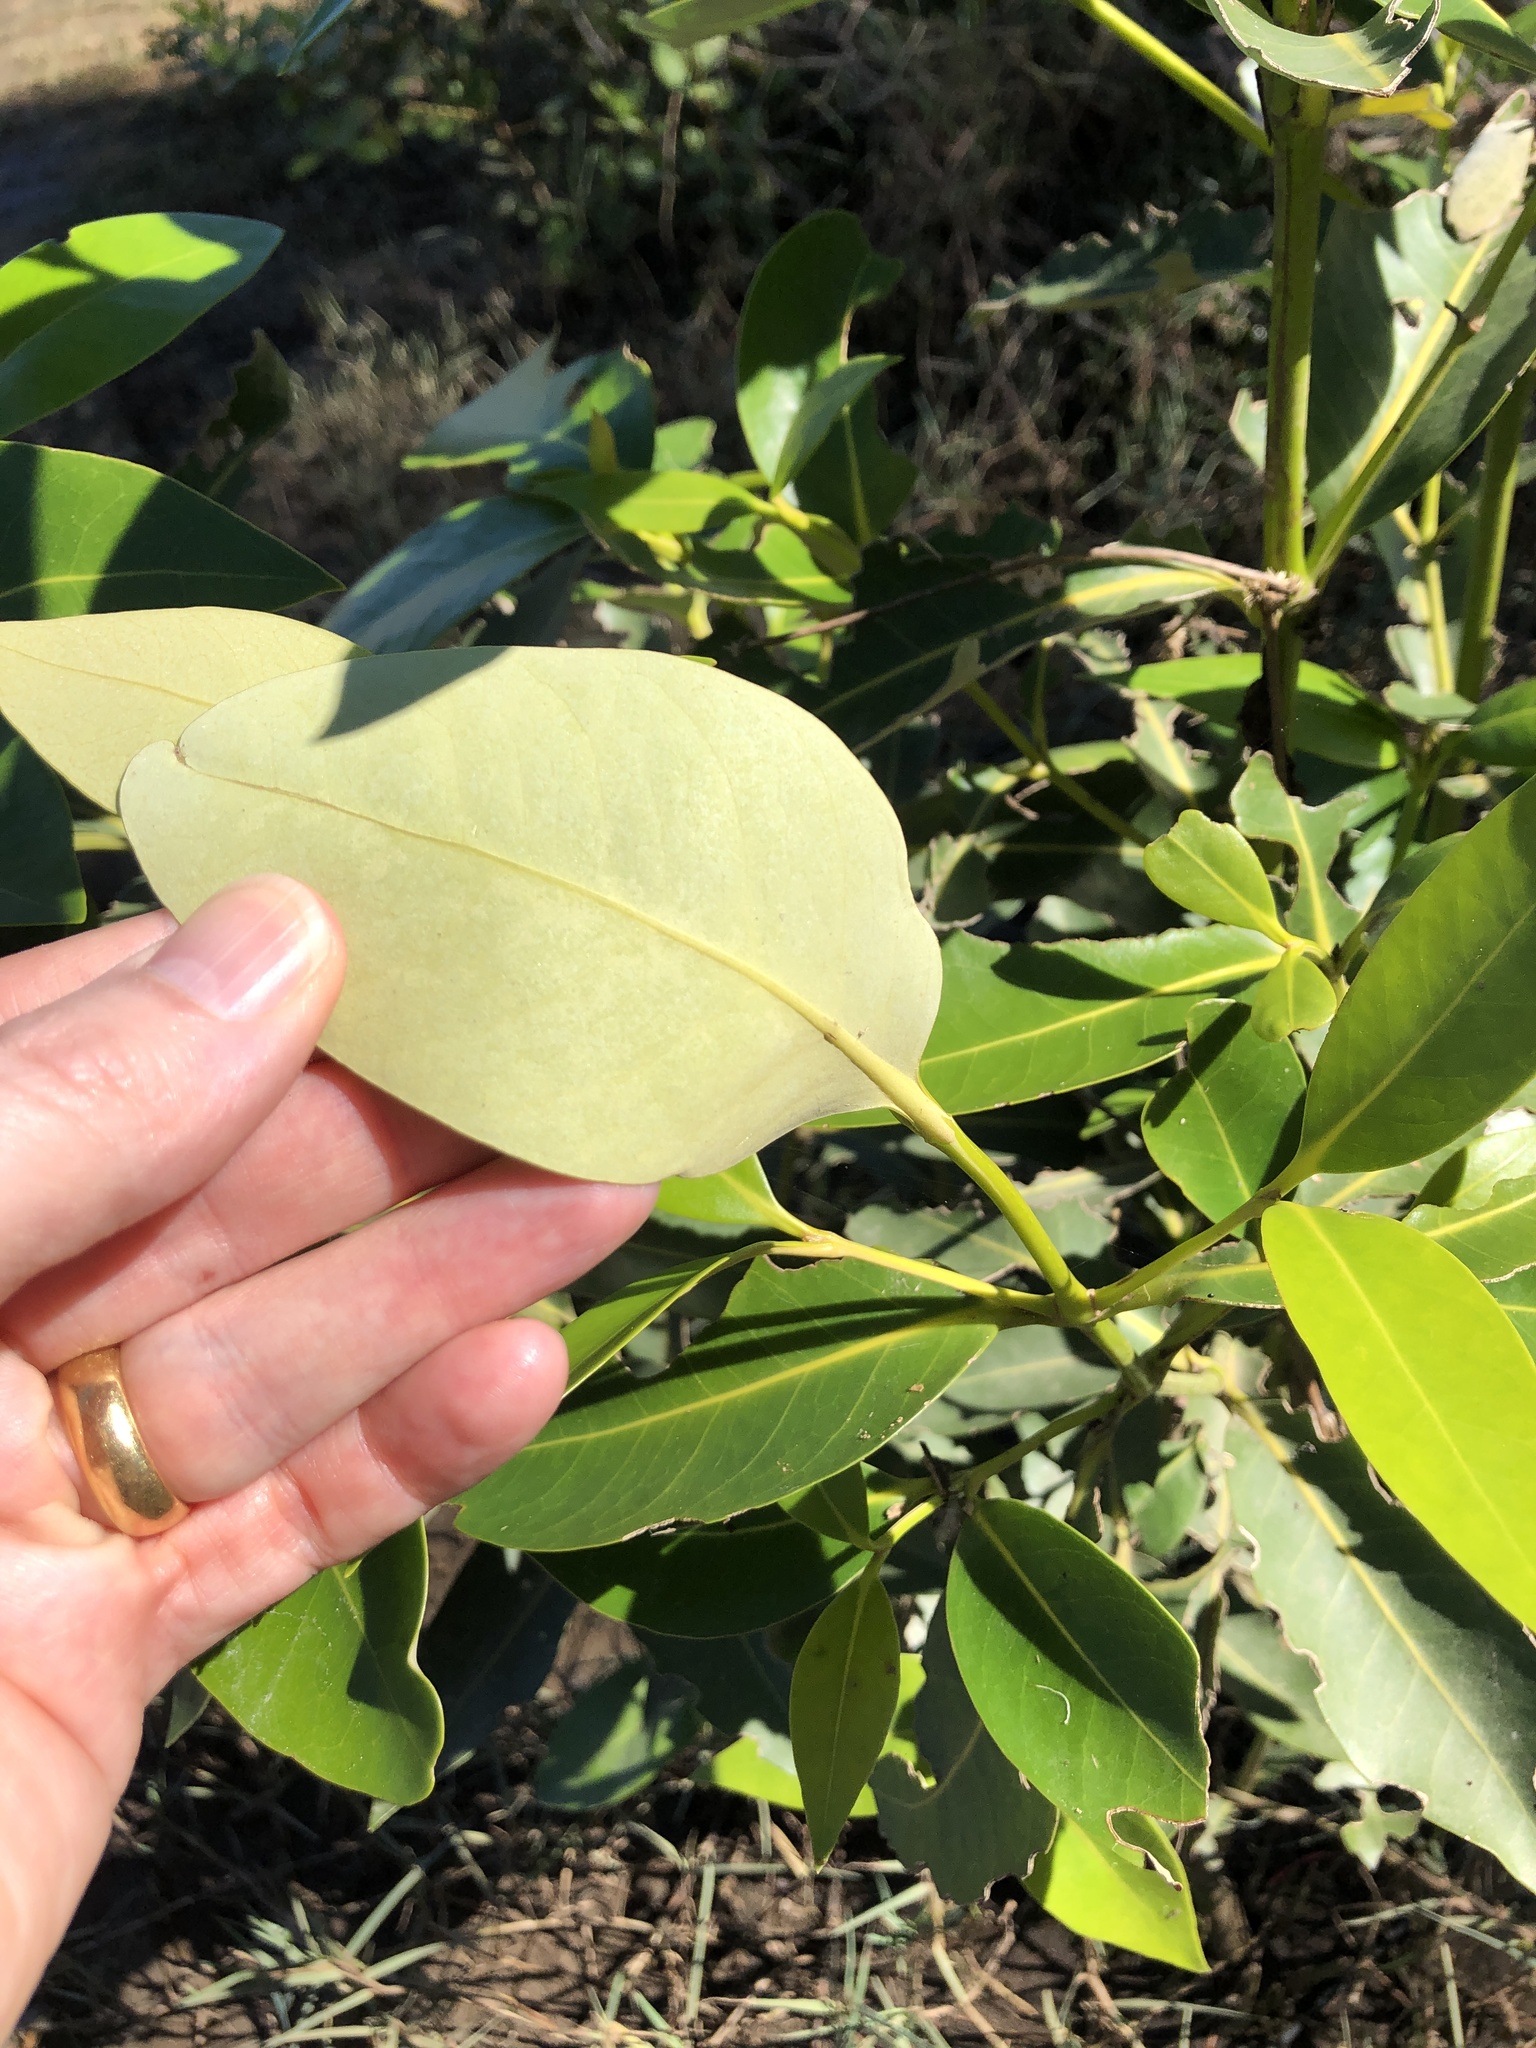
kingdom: Plantae
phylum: Tracheophyta
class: Magnoliopsida
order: Lamiales
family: Acanthaceae
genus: Avicennia
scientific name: Avicennia marina
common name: Gray mangrove
